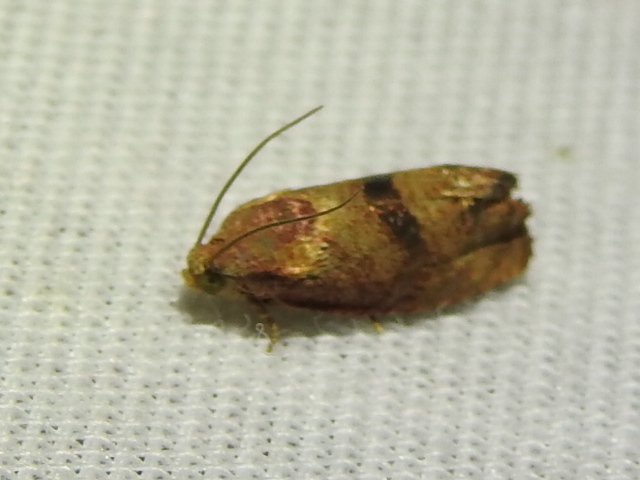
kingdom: Animalia
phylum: Arthropoda
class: Insecta
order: Lepidoptera
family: Tortricidae
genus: Cydia
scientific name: Cydia latiferreana
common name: Filbertworm moth
